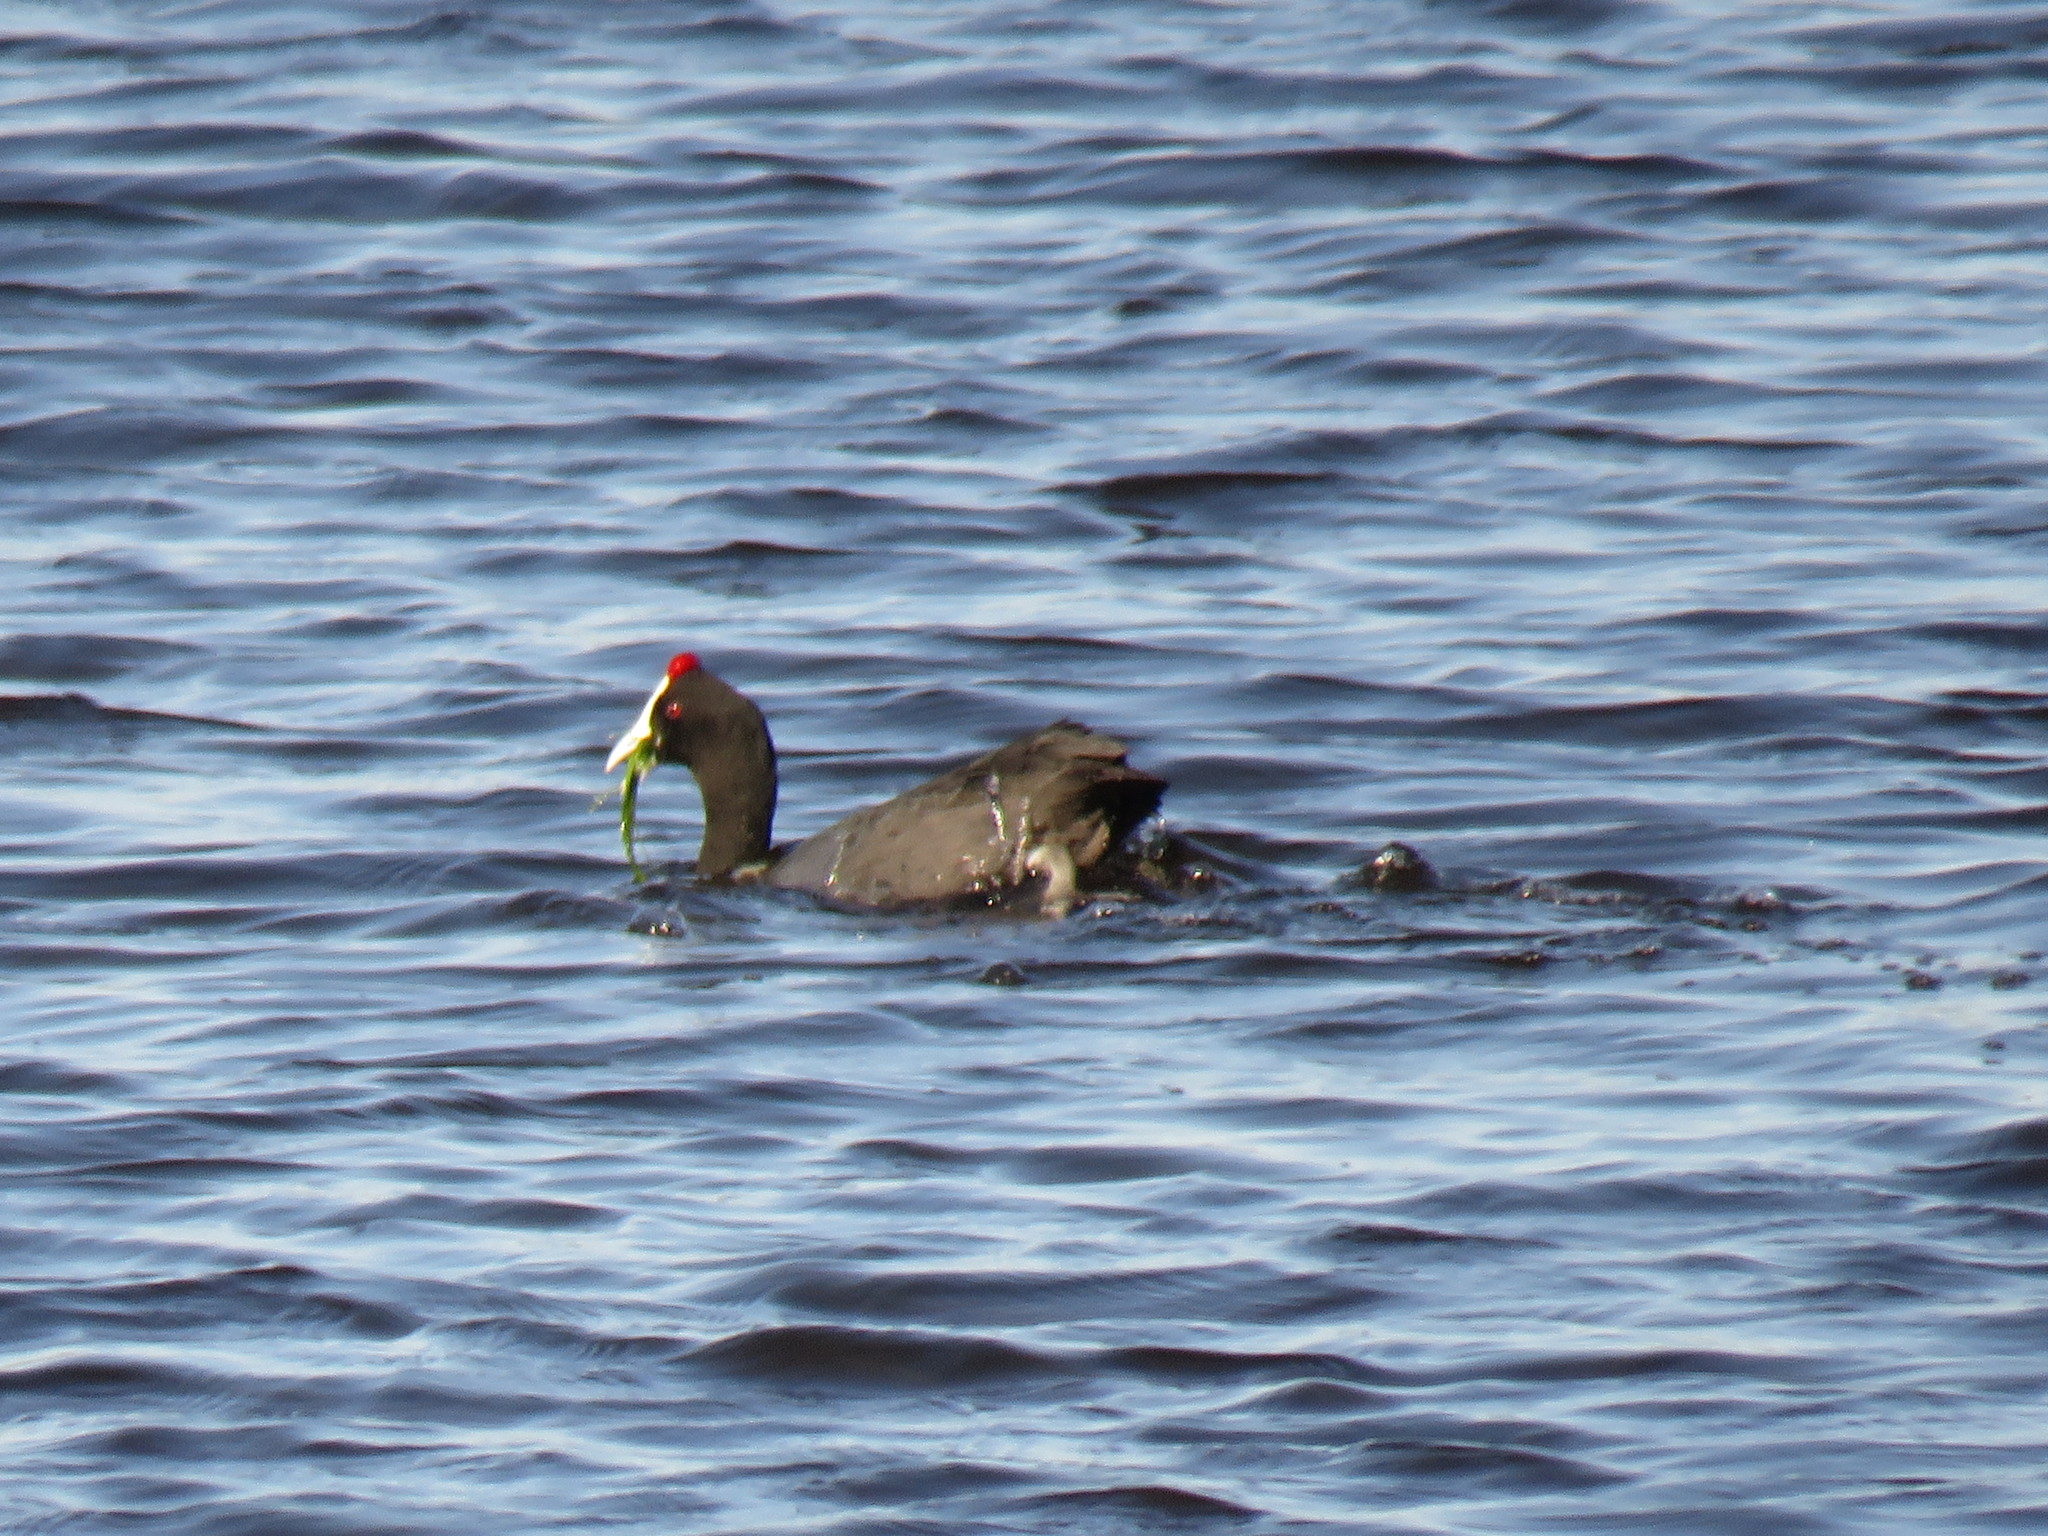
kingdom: Animalia
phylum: Chordata
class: Aves
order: Gruiformes
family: Rallidae
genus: Fulica
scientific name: Fulica cristata
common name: Red-knobbed coot
